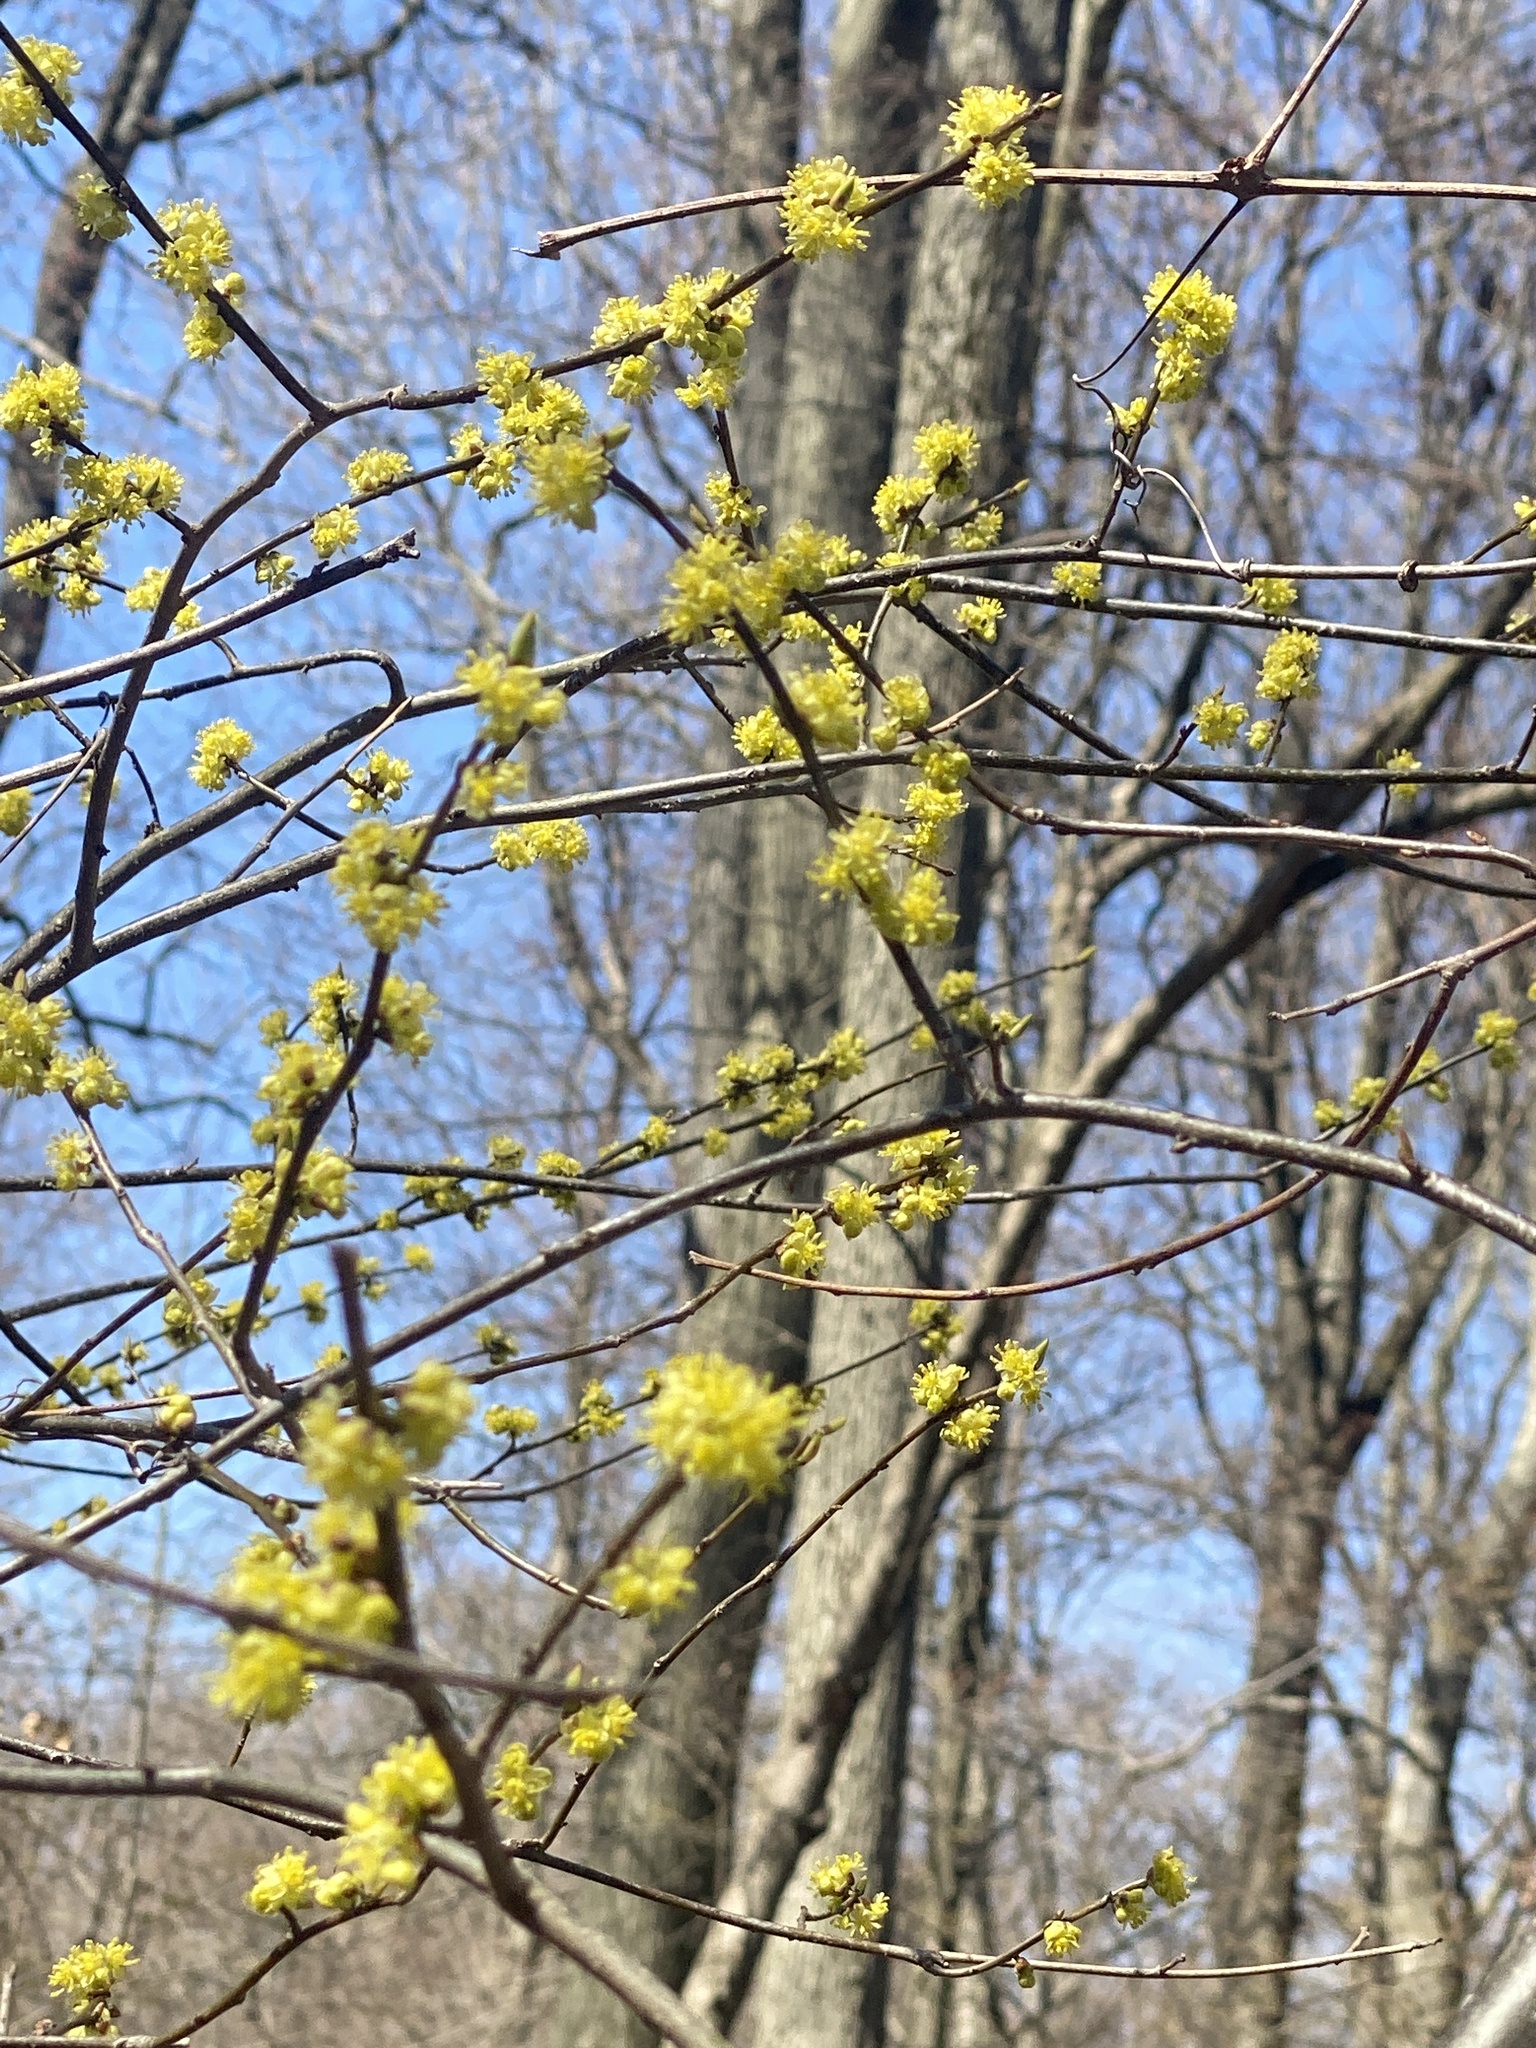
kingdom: Plantae
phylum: Tracheophyta
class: Magnoliopsida
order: Laurales
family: Lauraceae
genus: Lindera
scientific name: Lindera benzoin
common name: Spicebush
